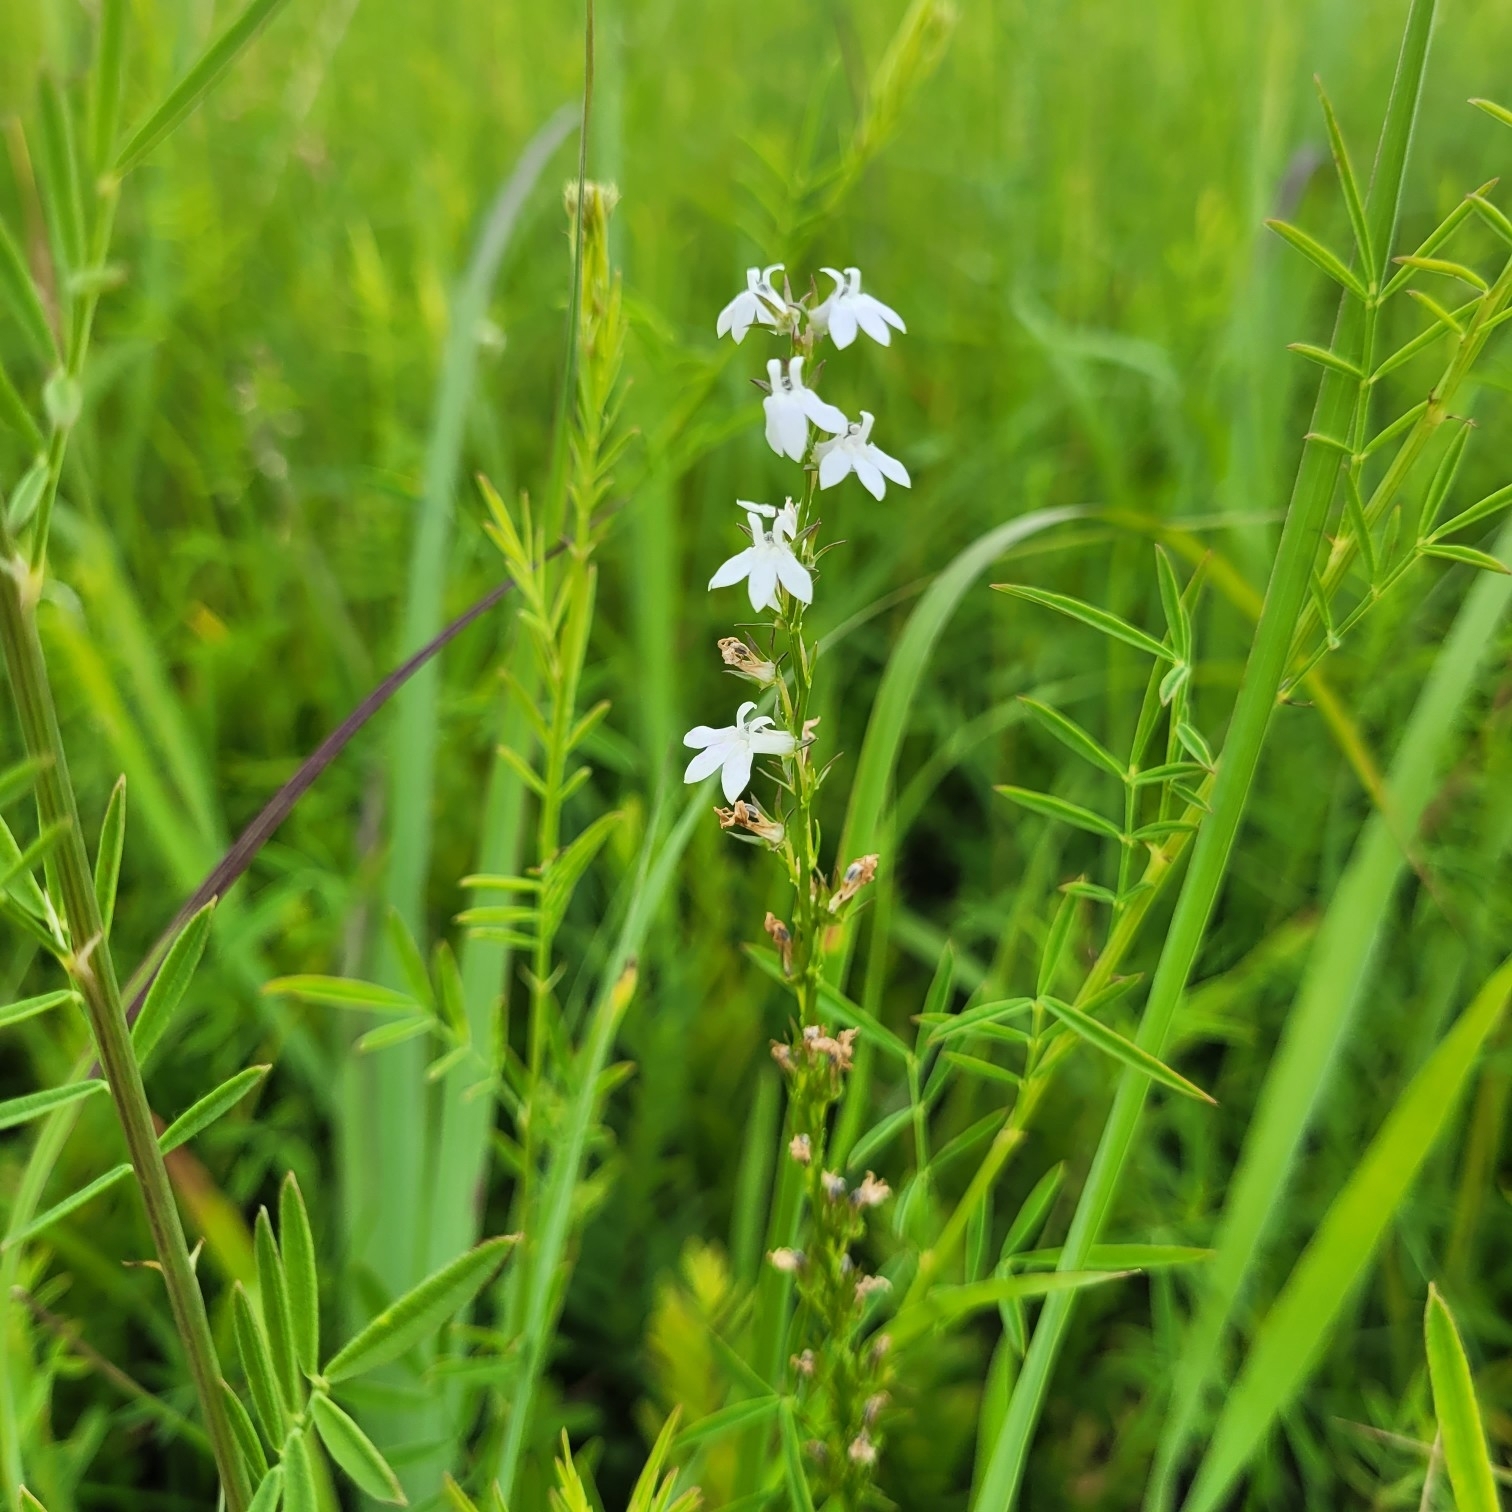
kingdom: Plantae
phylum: Tracheophyta
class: Magnoliopsida
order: Asterales
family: Campanulaceae
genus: Lobelia
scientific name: Lobelia spicata
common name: Pale-spike lobelia
